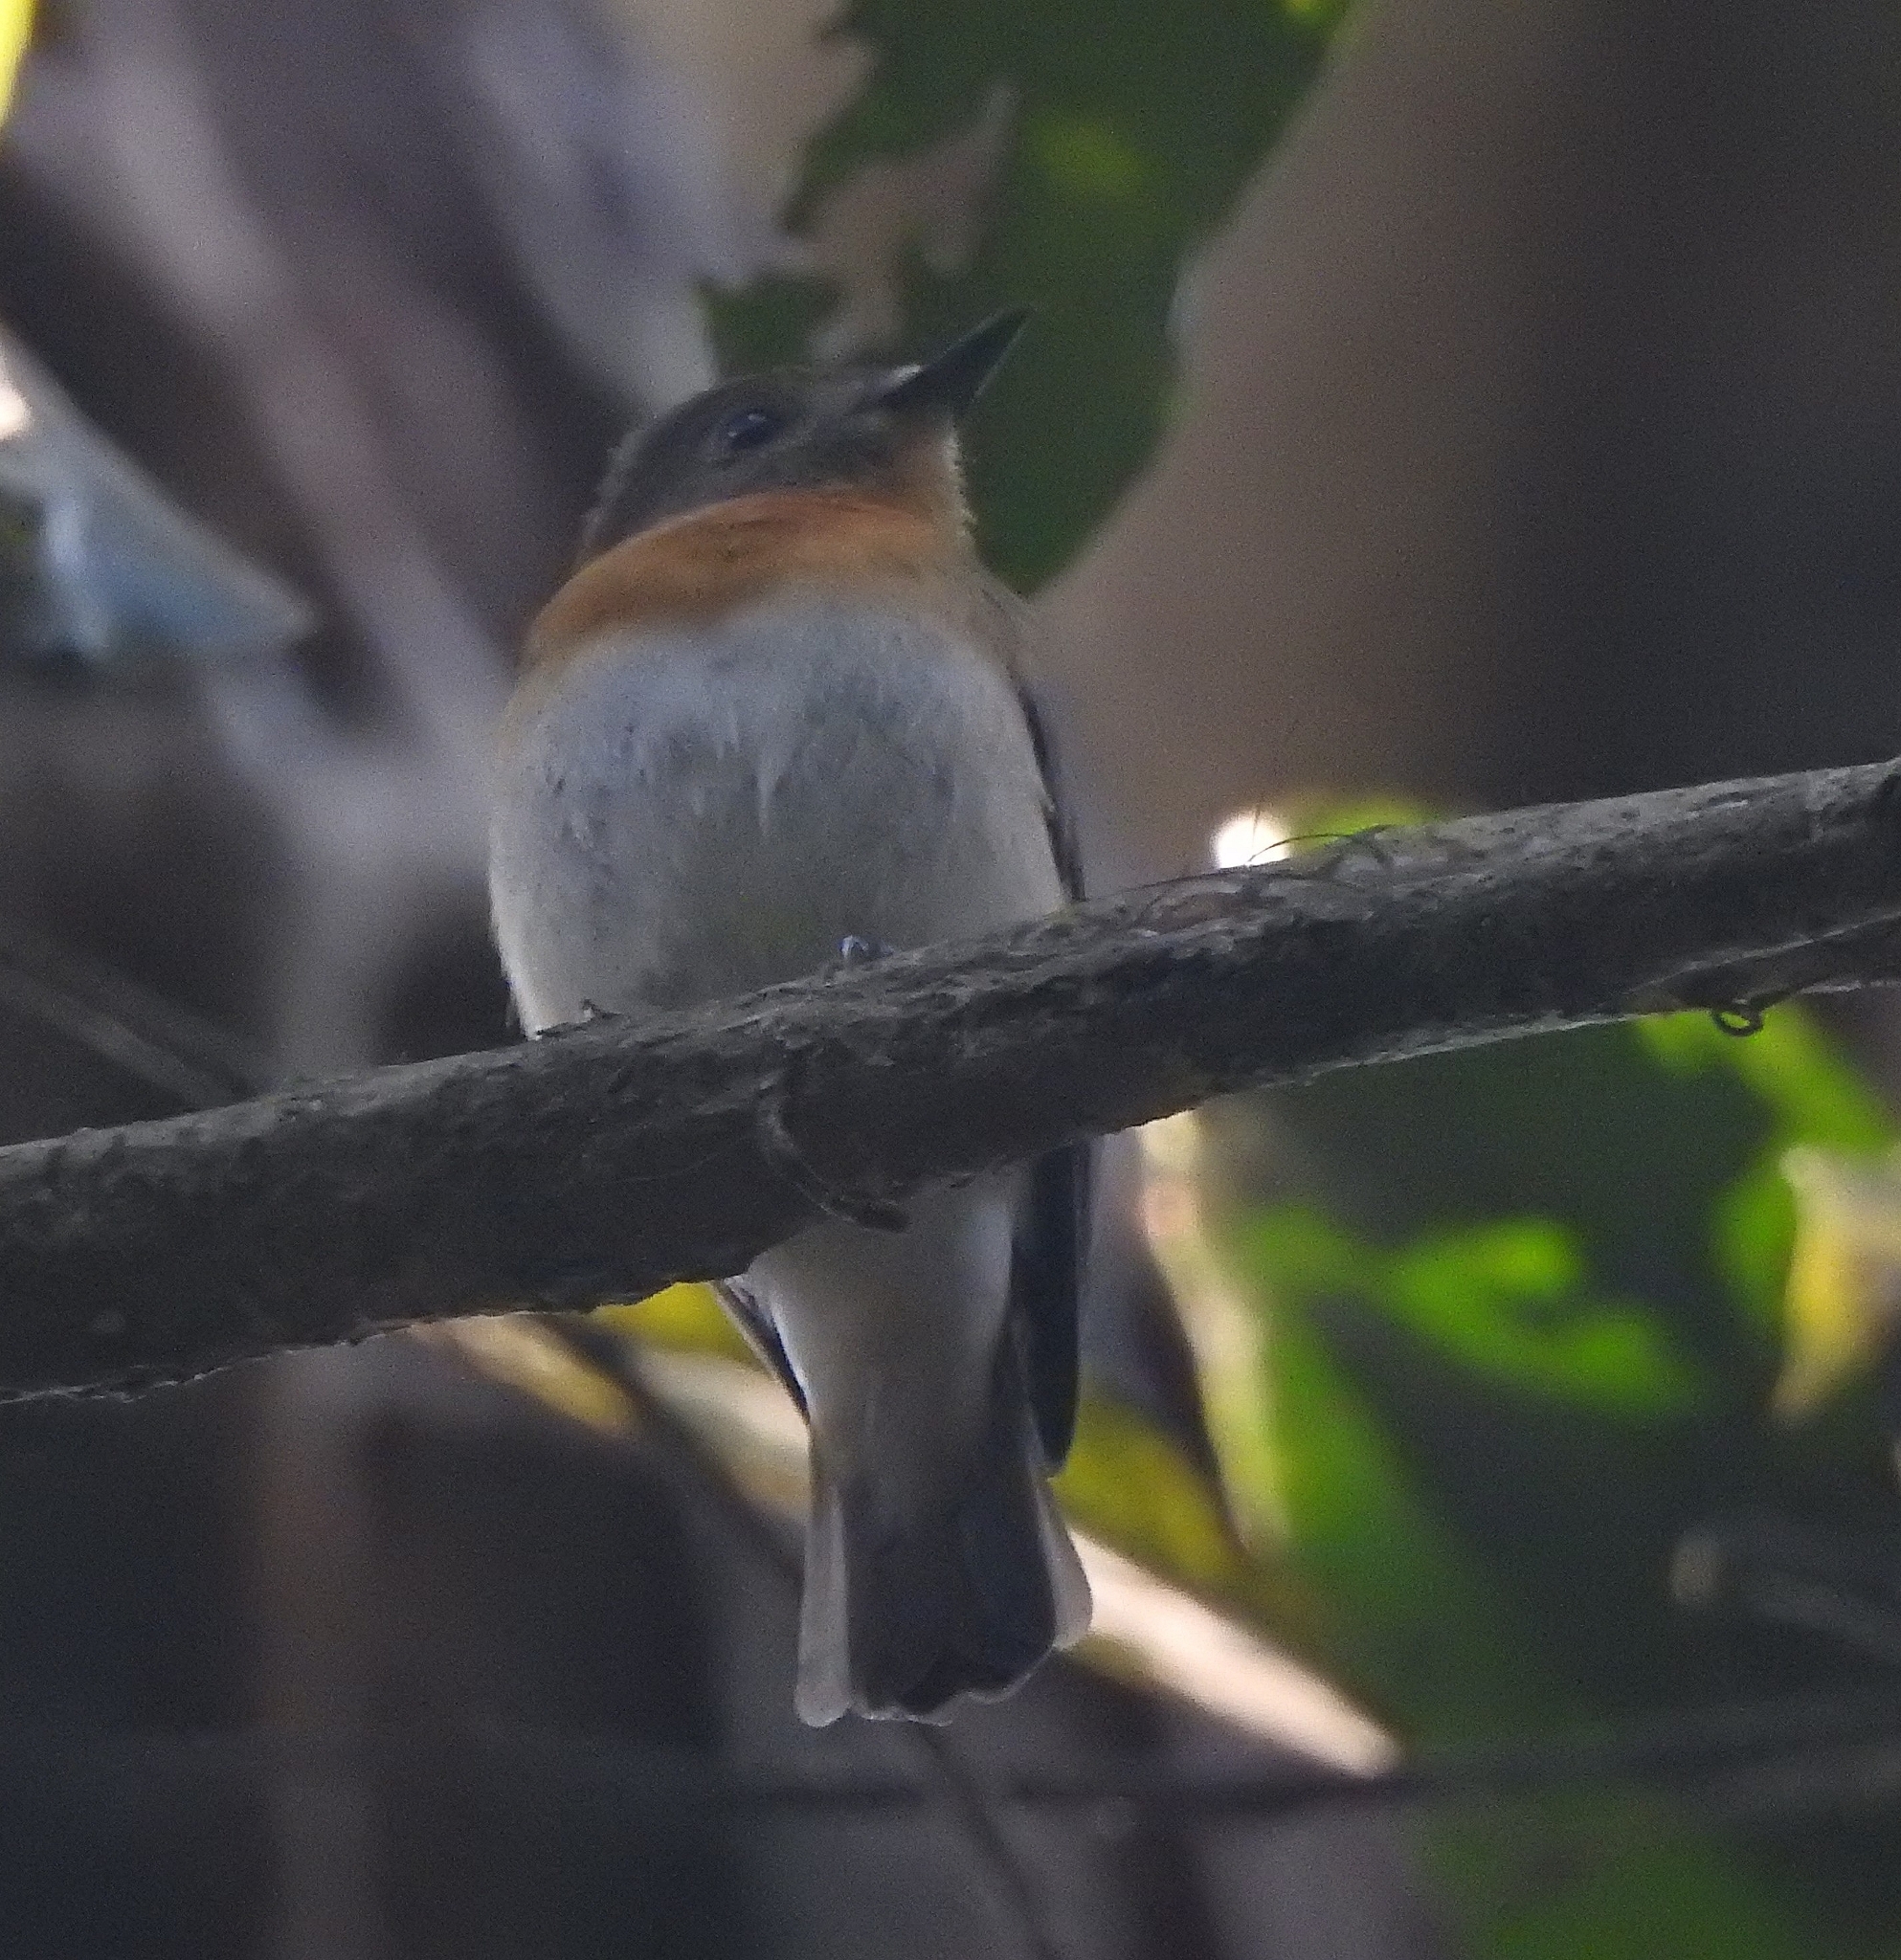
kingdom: Animalia
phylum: Chordata
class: Aves
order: Passeriformes
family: Muscicapidae
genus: Cyornis
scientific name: Cyornis rubeculoides
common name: Blue-throated blue flycatcher
